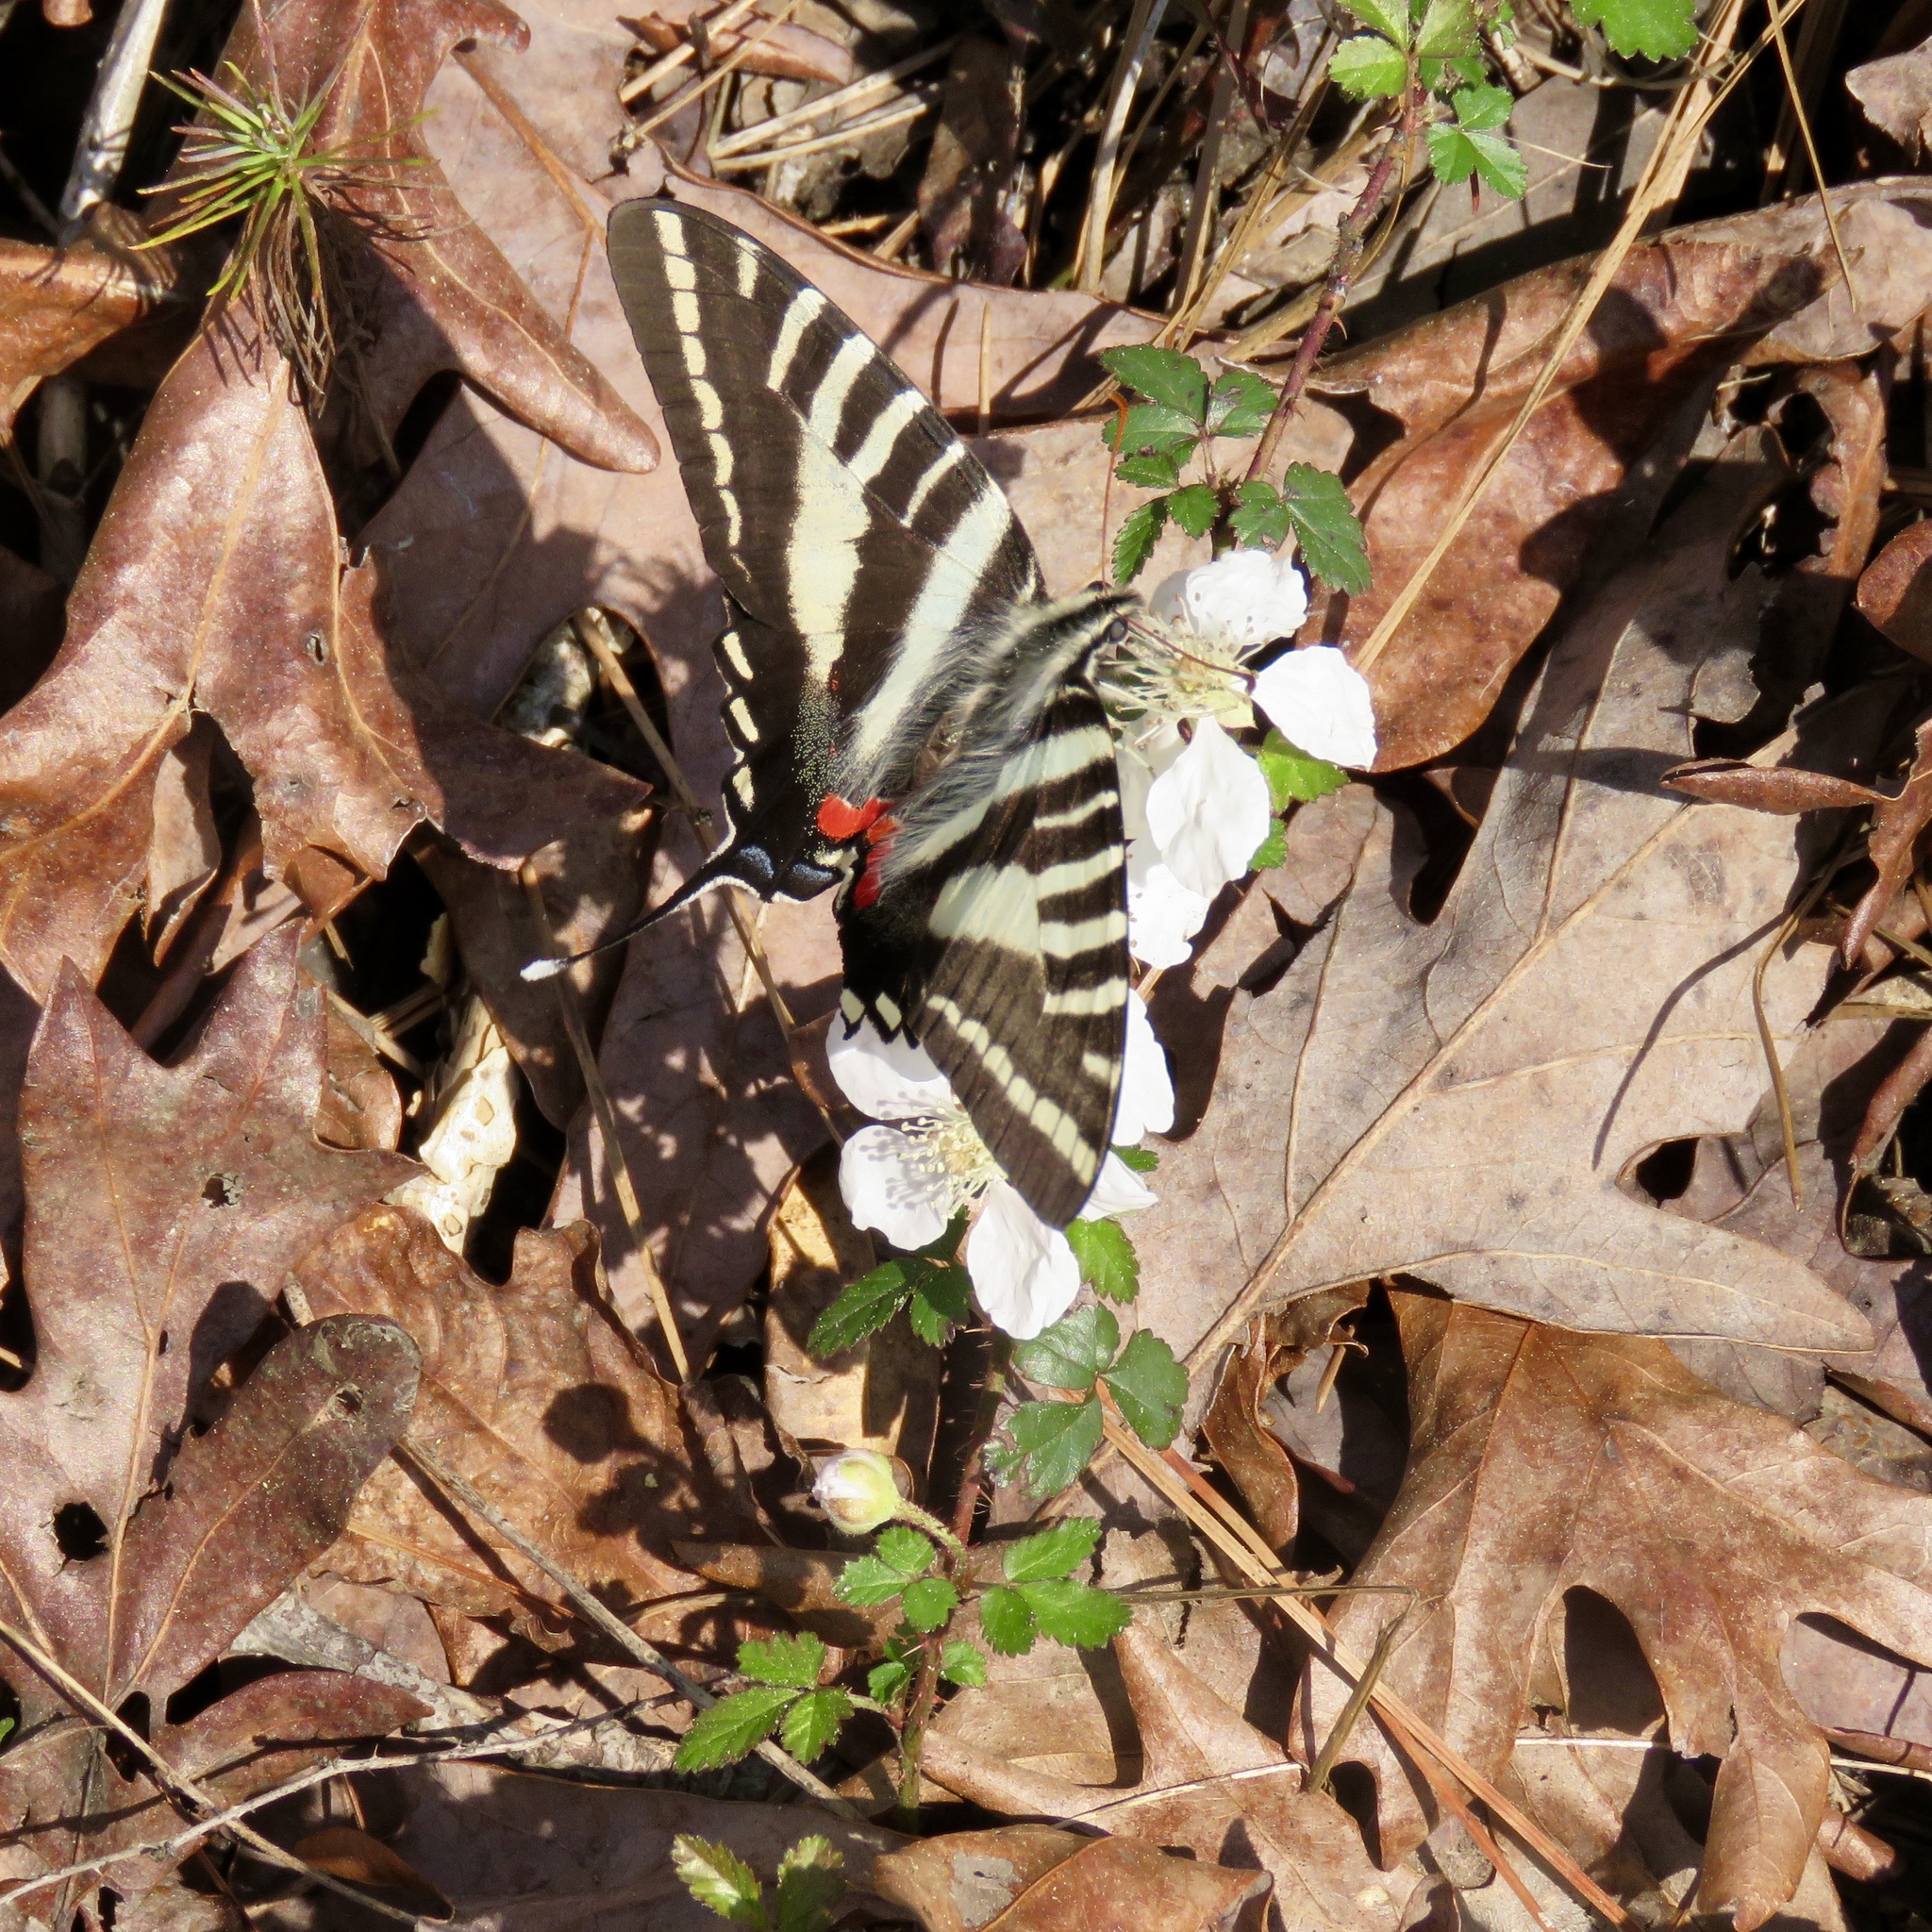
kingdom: Animalia
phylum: Arthropoda
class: Insecta
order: Lepidoptera
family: Papilionidae
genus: Protographium
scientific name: Protographium marcellus
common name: Zebra swallowtail
